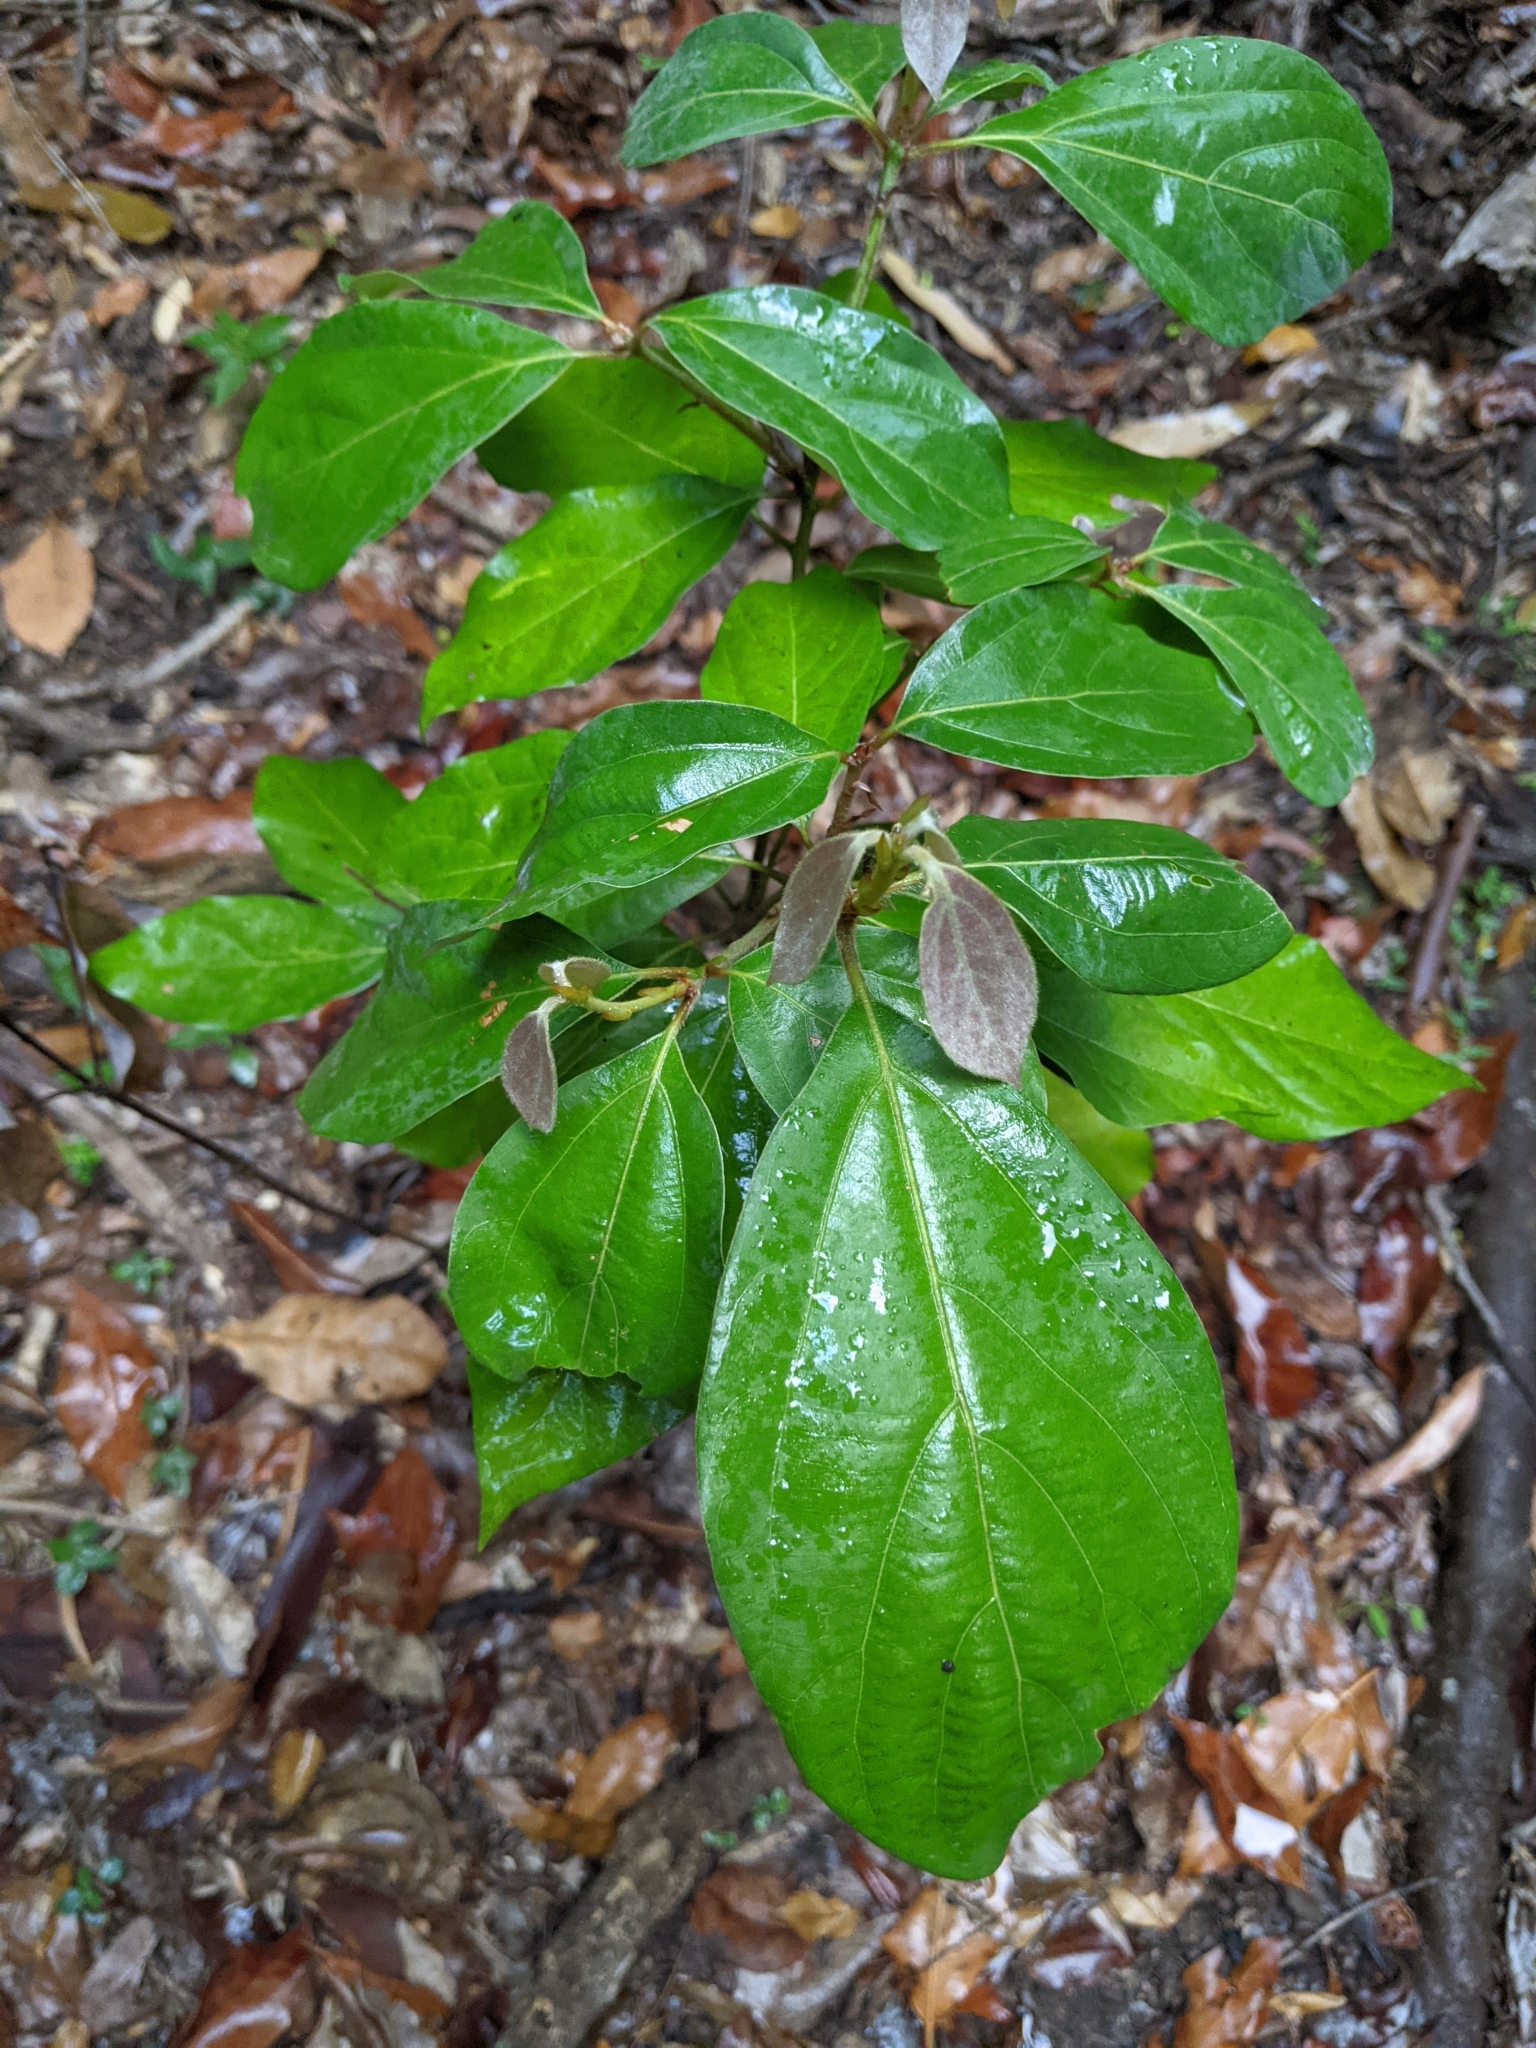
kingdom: Plantae
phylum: Tracheophyta
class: Magnoliopsida
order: Laurales
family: Lauraceae
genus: Neolitsea
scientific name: Neolitsea dealbata
